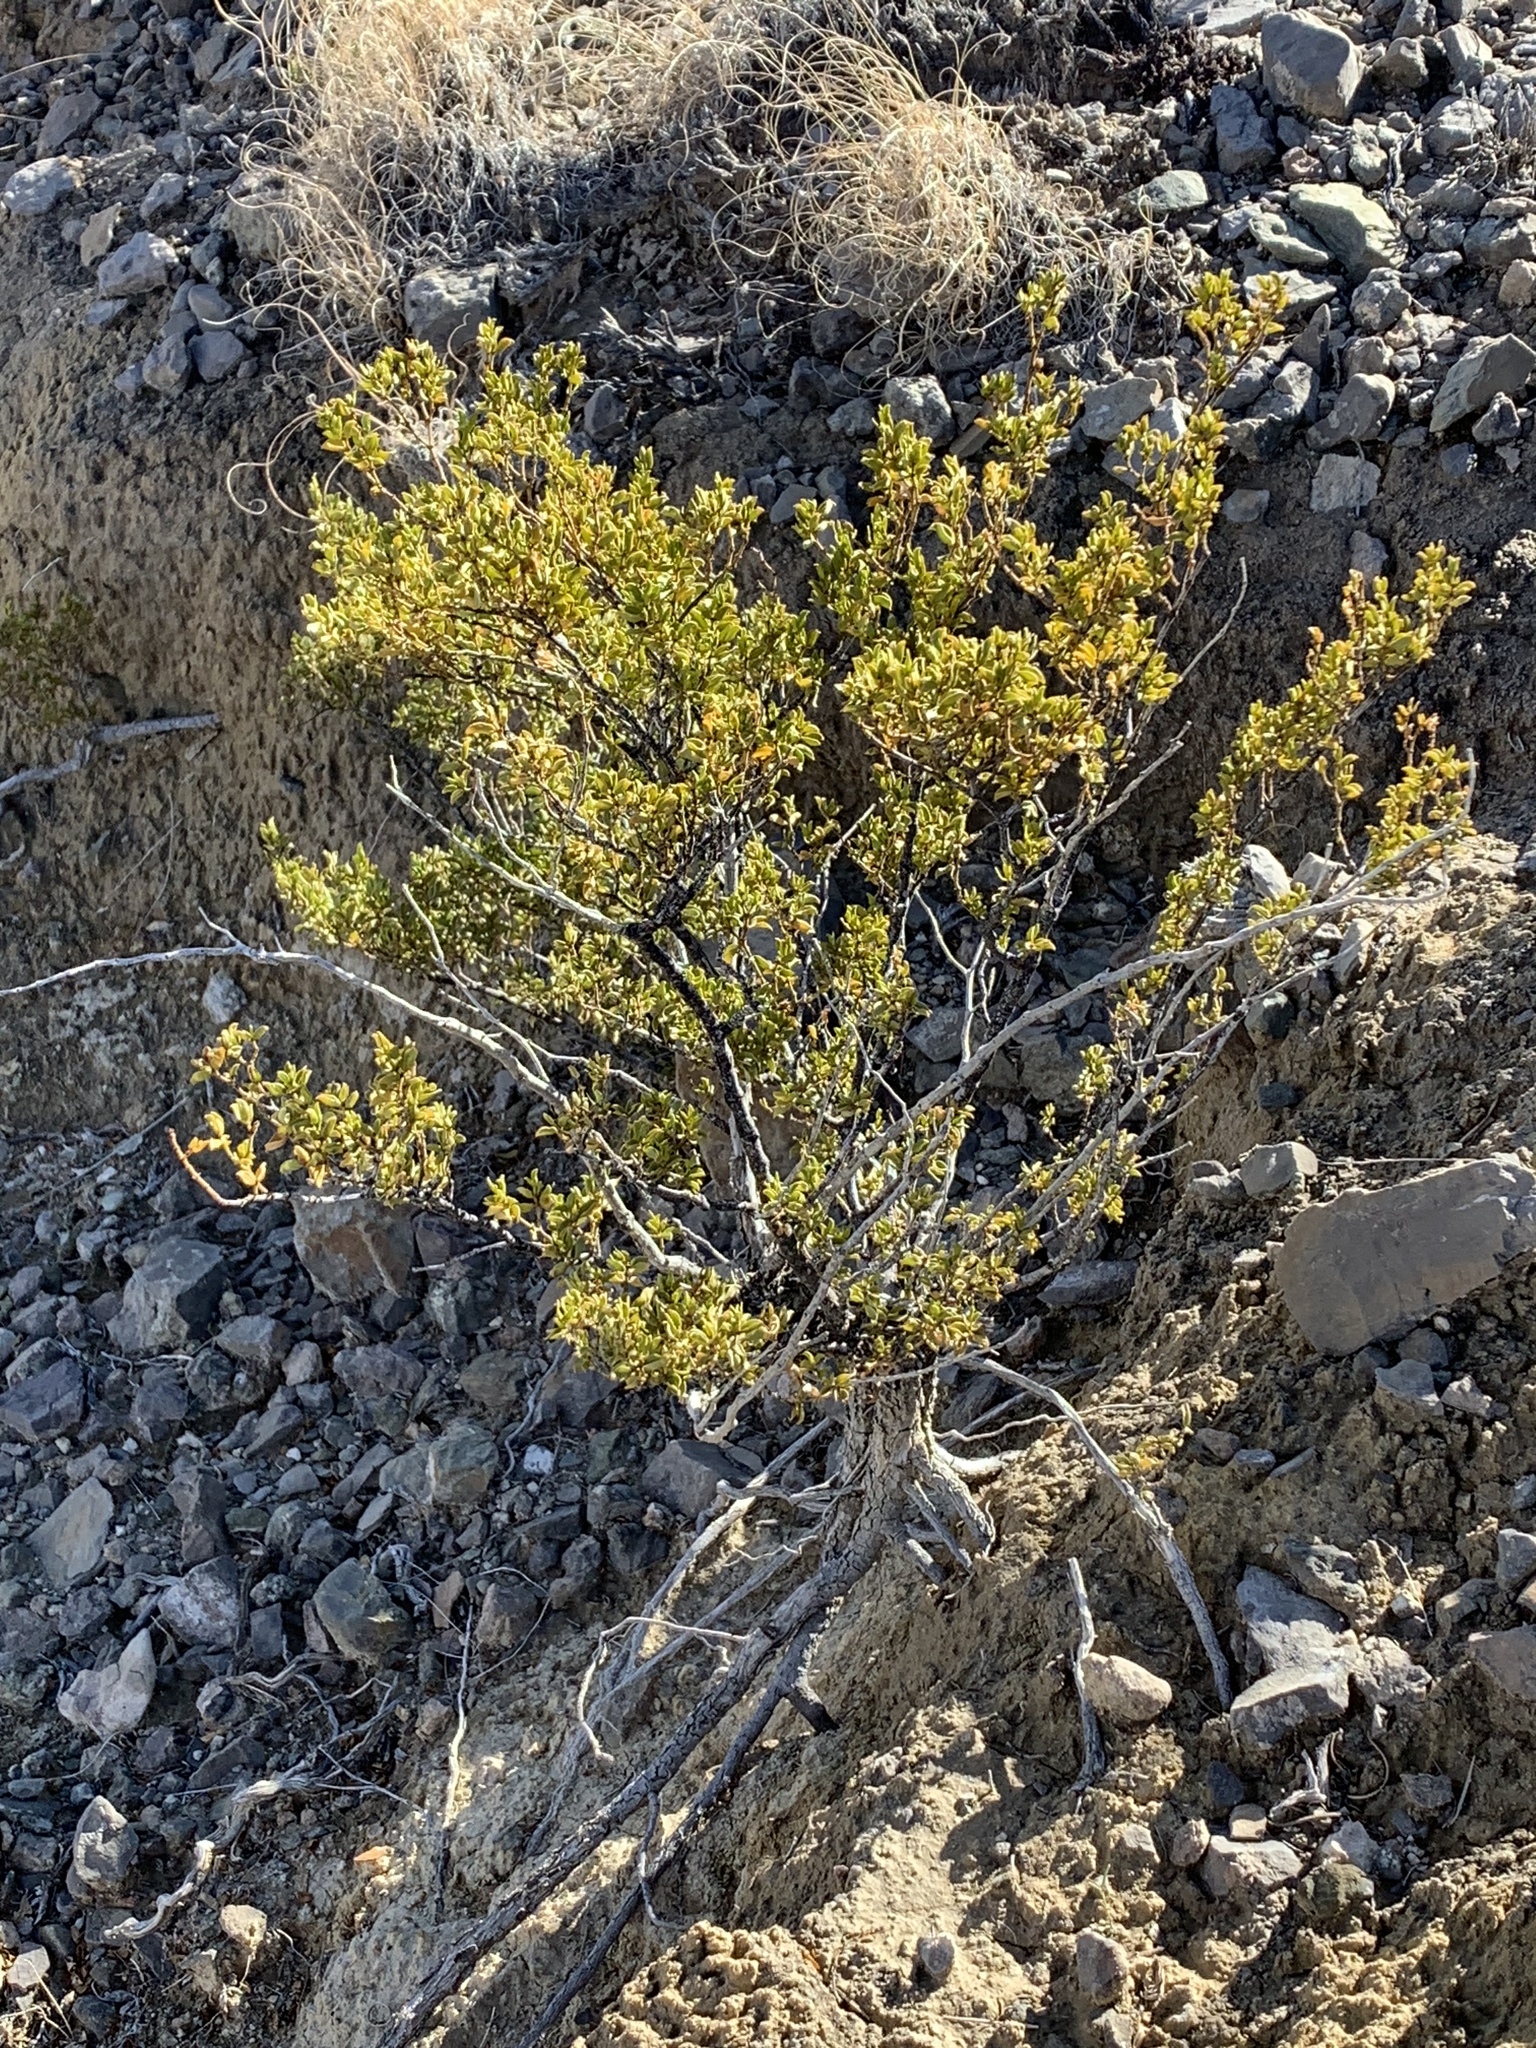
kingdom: Plantae
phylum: Tracheophyta
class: Magnoliopsida
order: Zygophyllales
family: Zygophyllaceae
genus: Larrea
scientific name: Larrea tridentata
